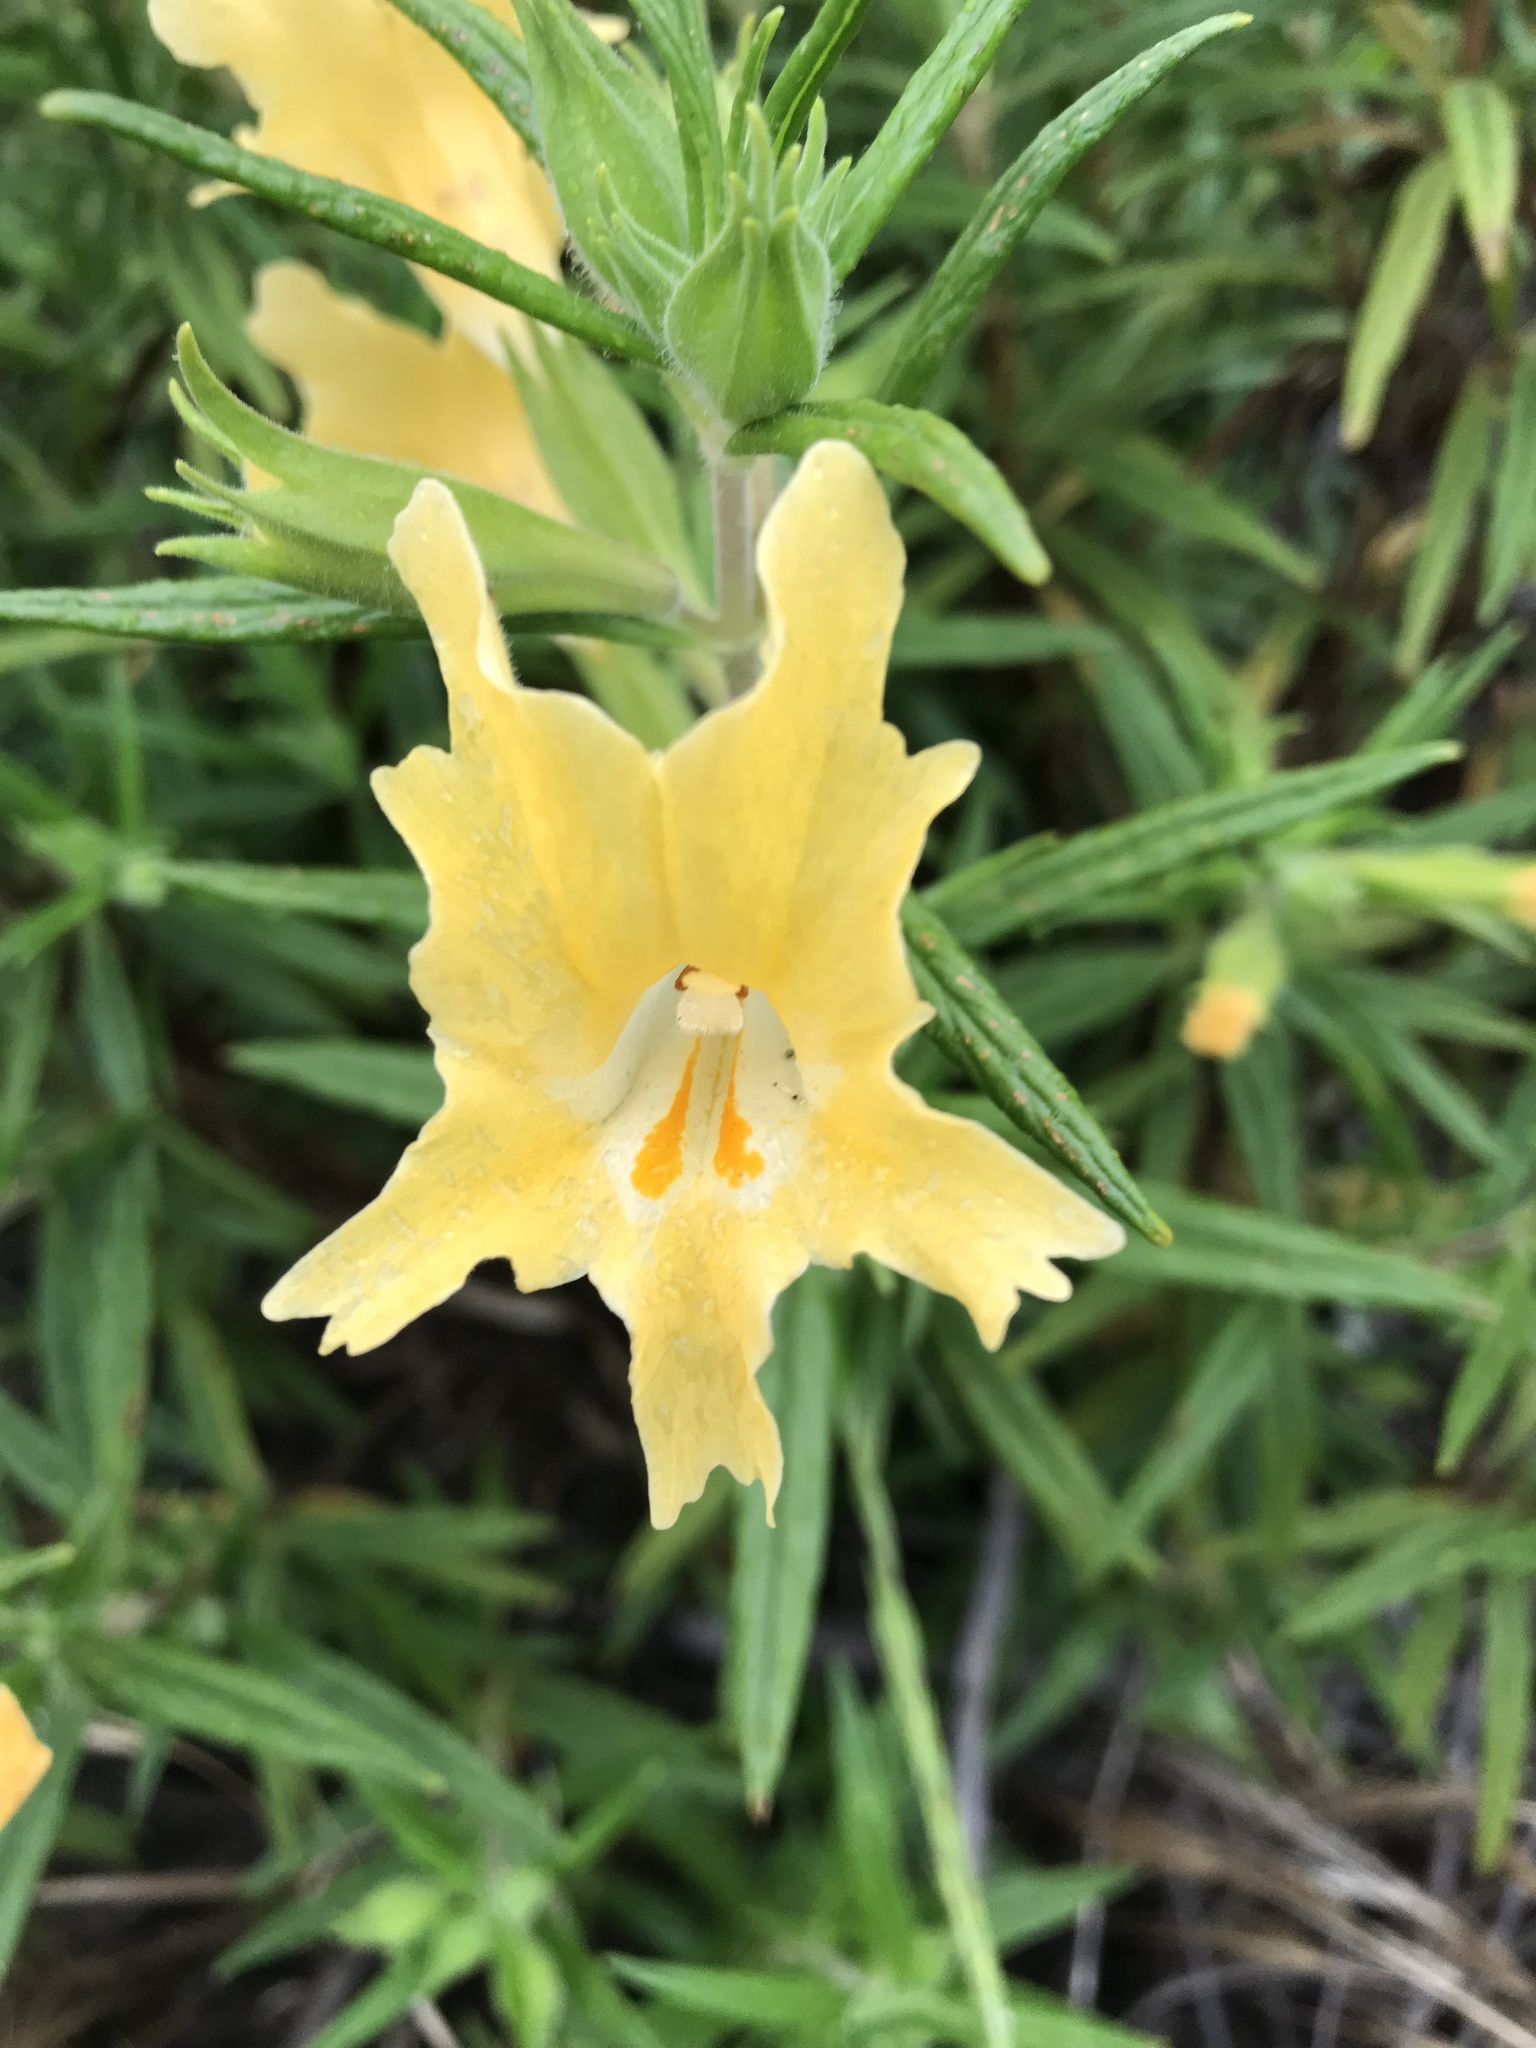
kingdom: Plantae
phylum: Tracheophyta
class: Magnoliopsida
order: Lamiales
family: Phrymaceae
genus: Diplacus
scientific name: Diplacus longiflorus
